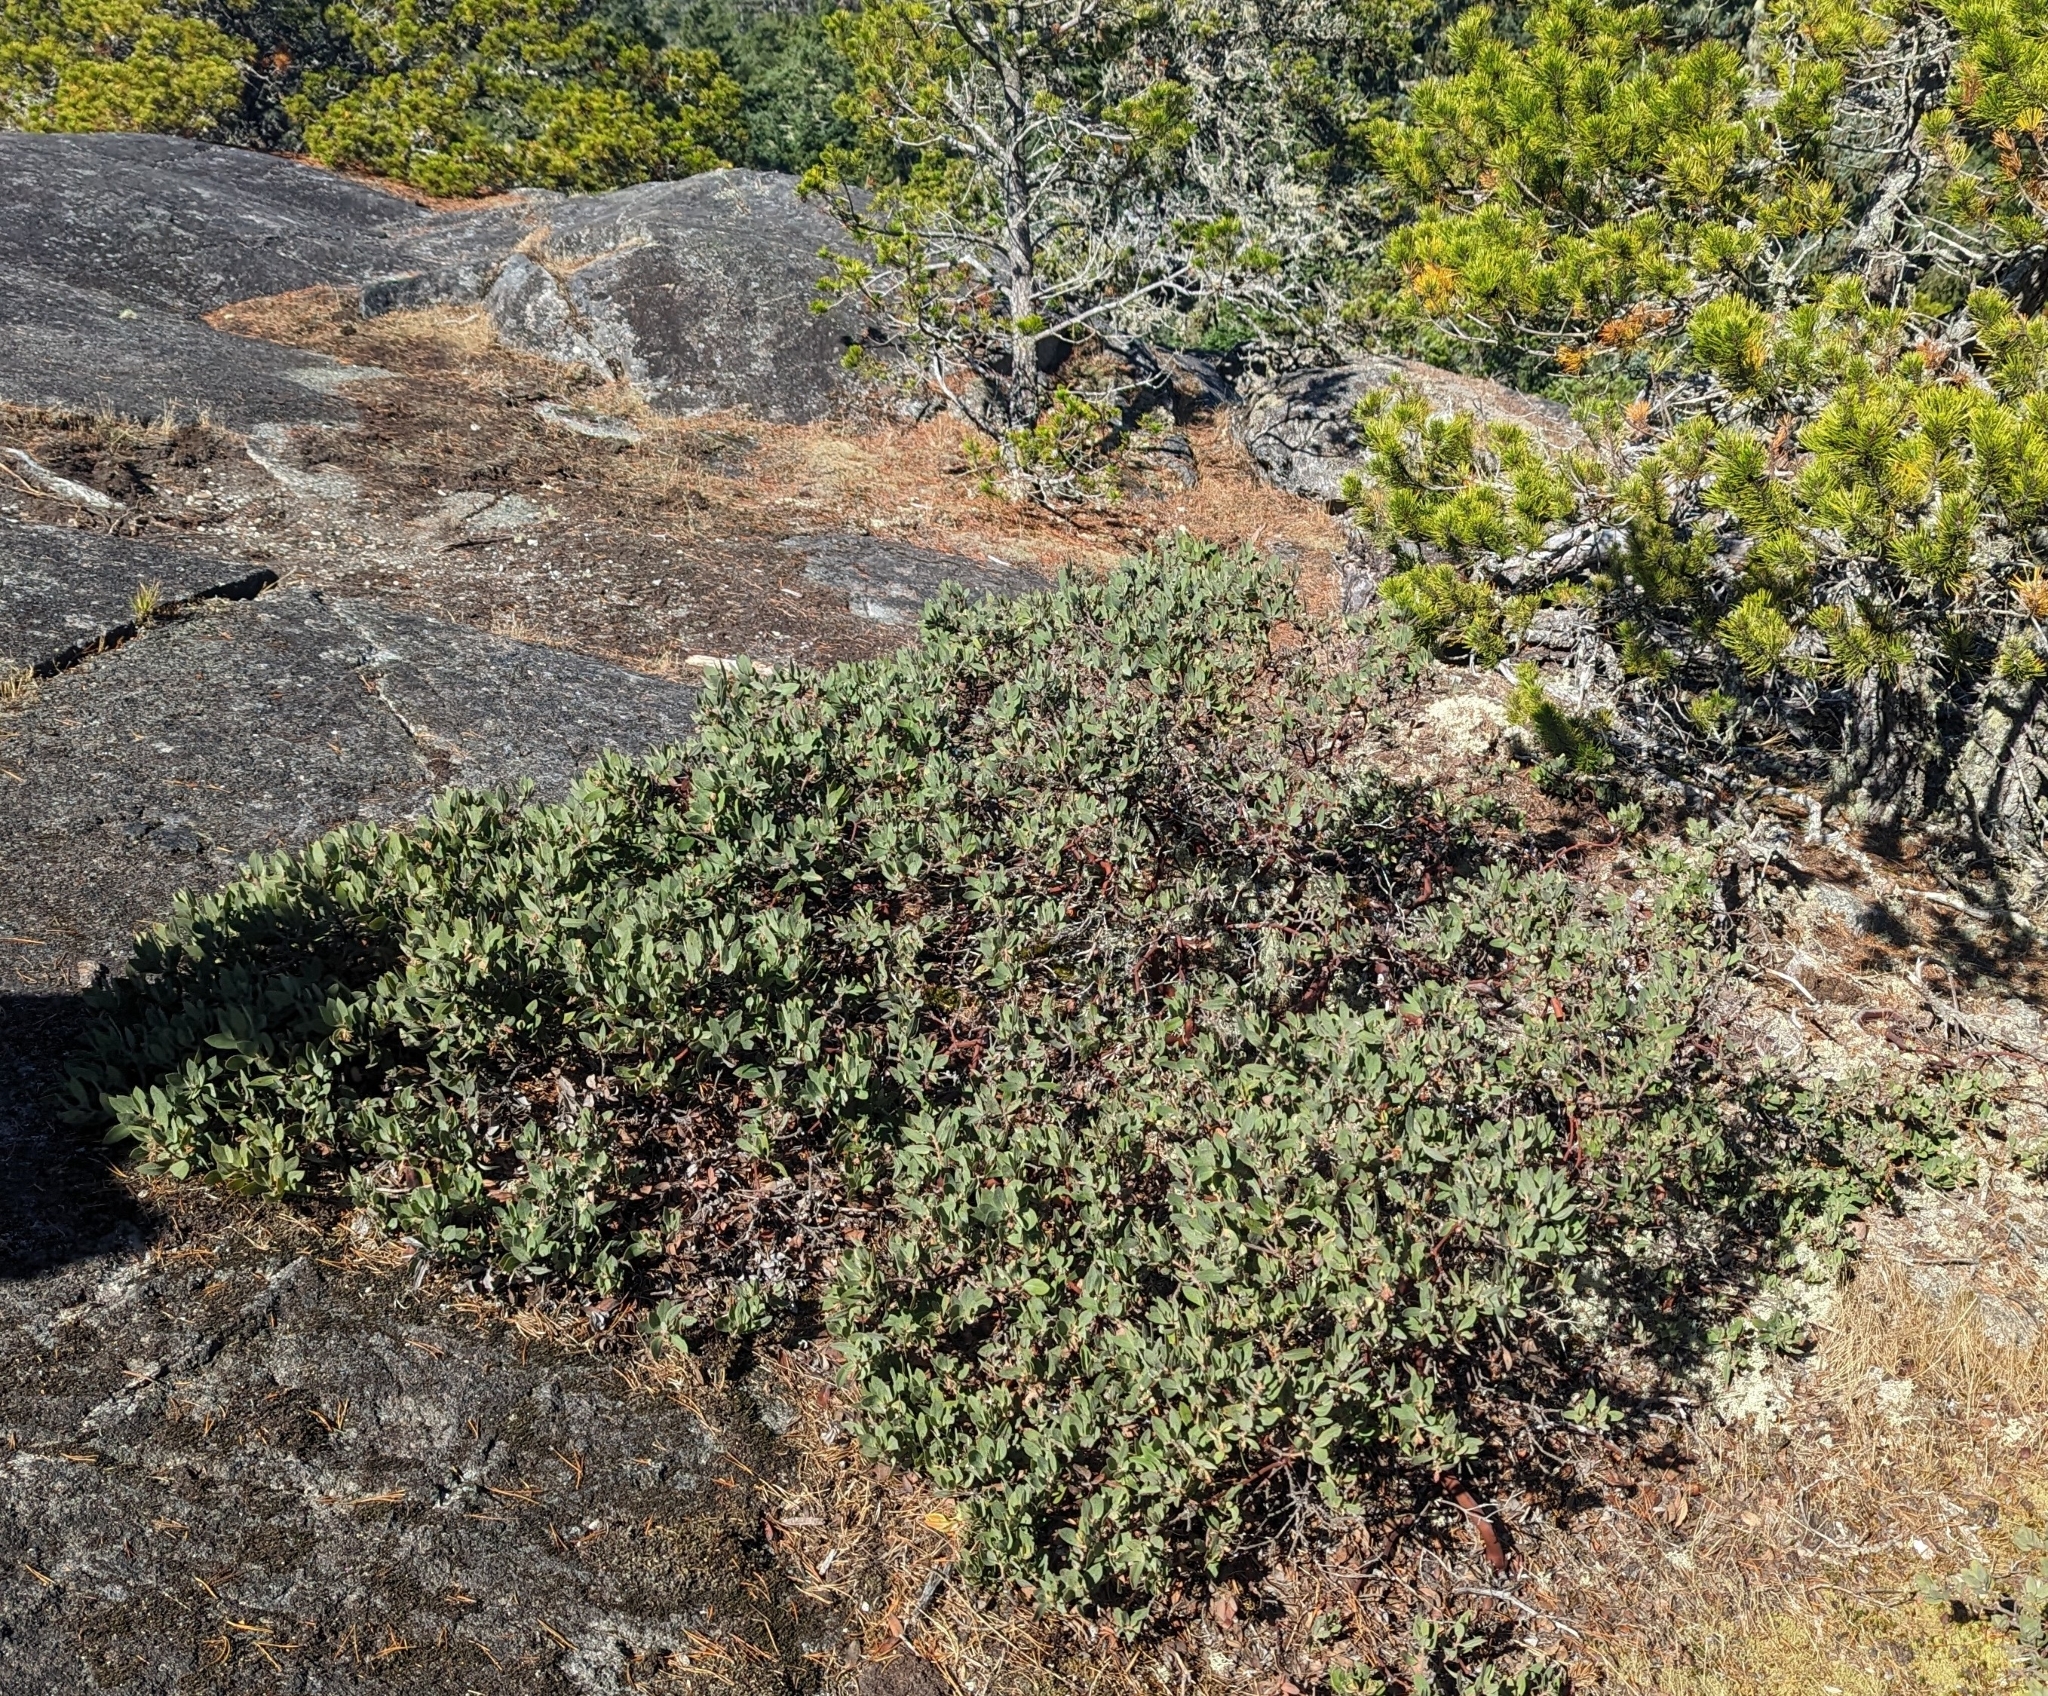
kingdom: Plantae
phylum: Tracheophyta
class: Magnoliopsida
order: Ericales
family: Ericaceae
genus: Arctostaphylos
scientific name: Arctostaphylos columbiana
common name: Bristly bearberry
